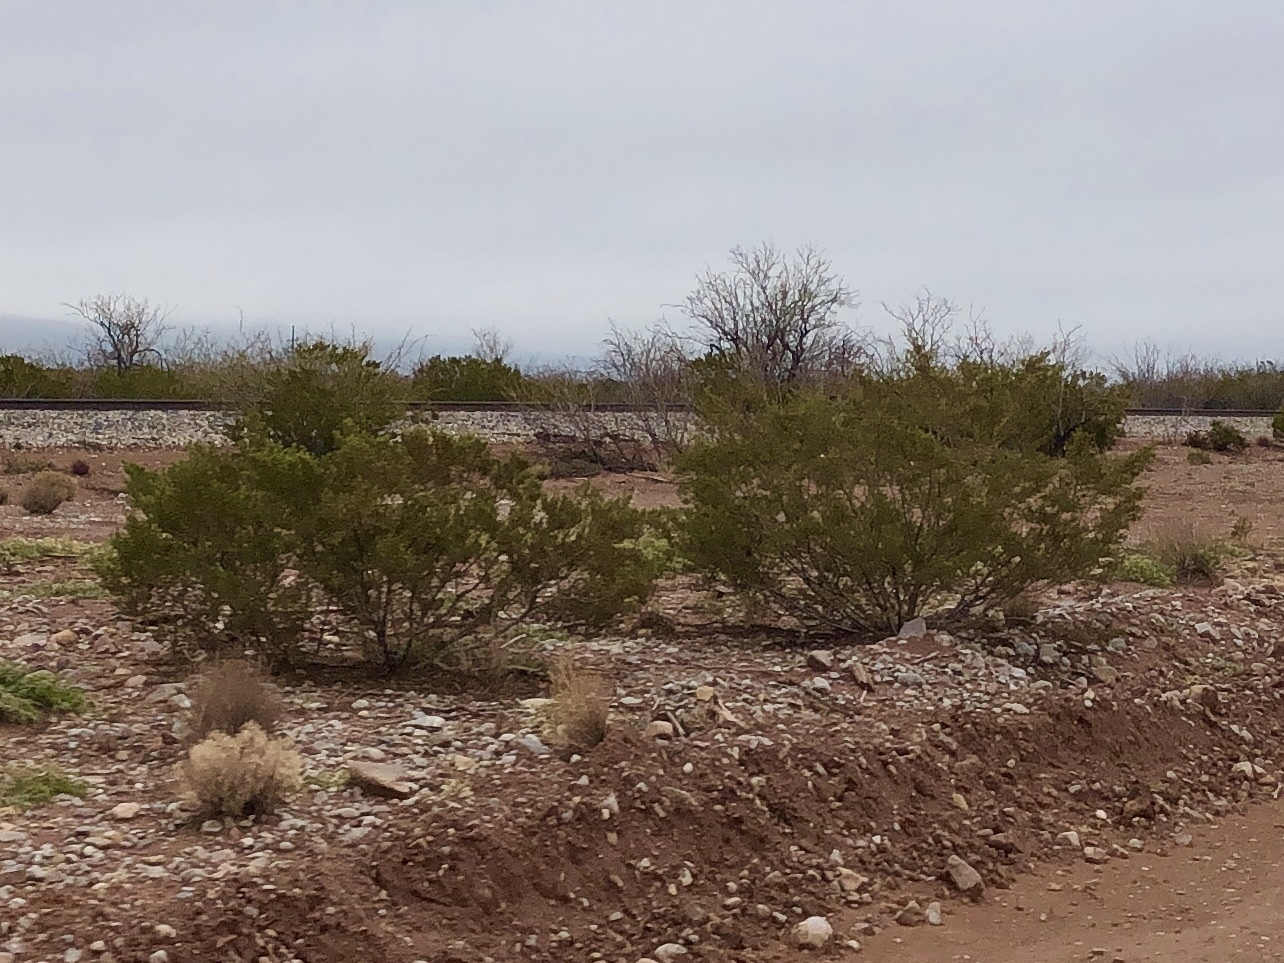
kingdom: Plantae
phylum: Tracheophyta
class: Magnoliopsida
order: Zygophyllales
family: Zygophyllaceae
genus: Larrea
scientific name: Larrea tridentata
